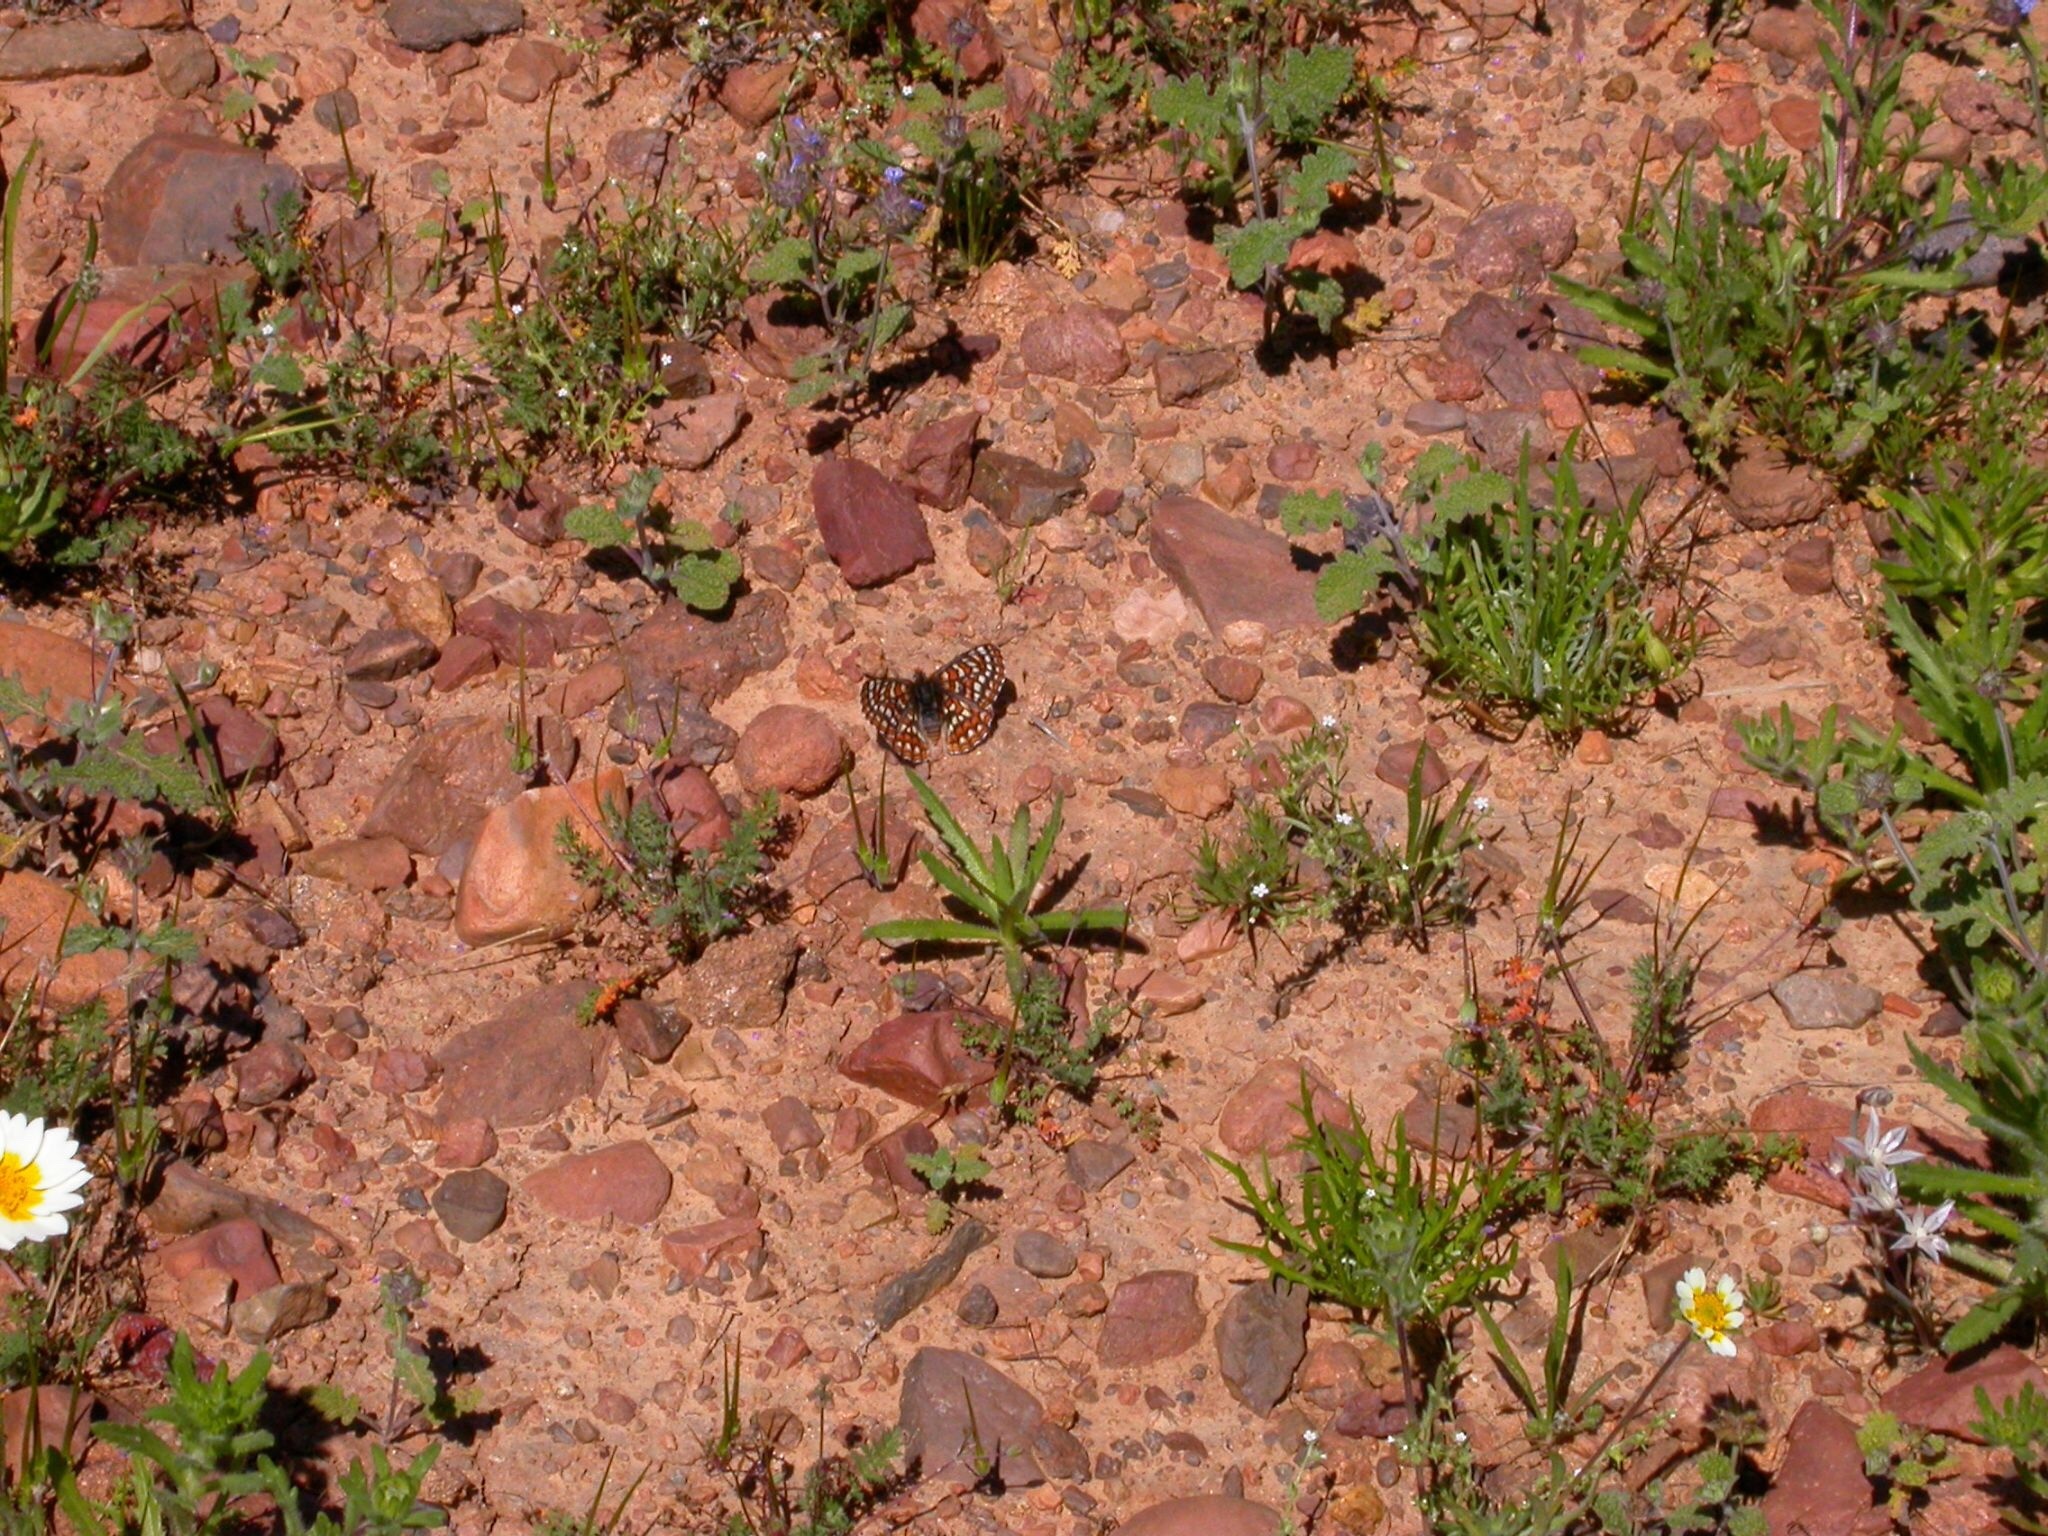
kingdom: Animalia
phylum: Arthropoda
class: Insecta
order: Lepidoptera
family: Nymphalidae
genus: Occidryas
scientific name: Occidryas chalcedona
